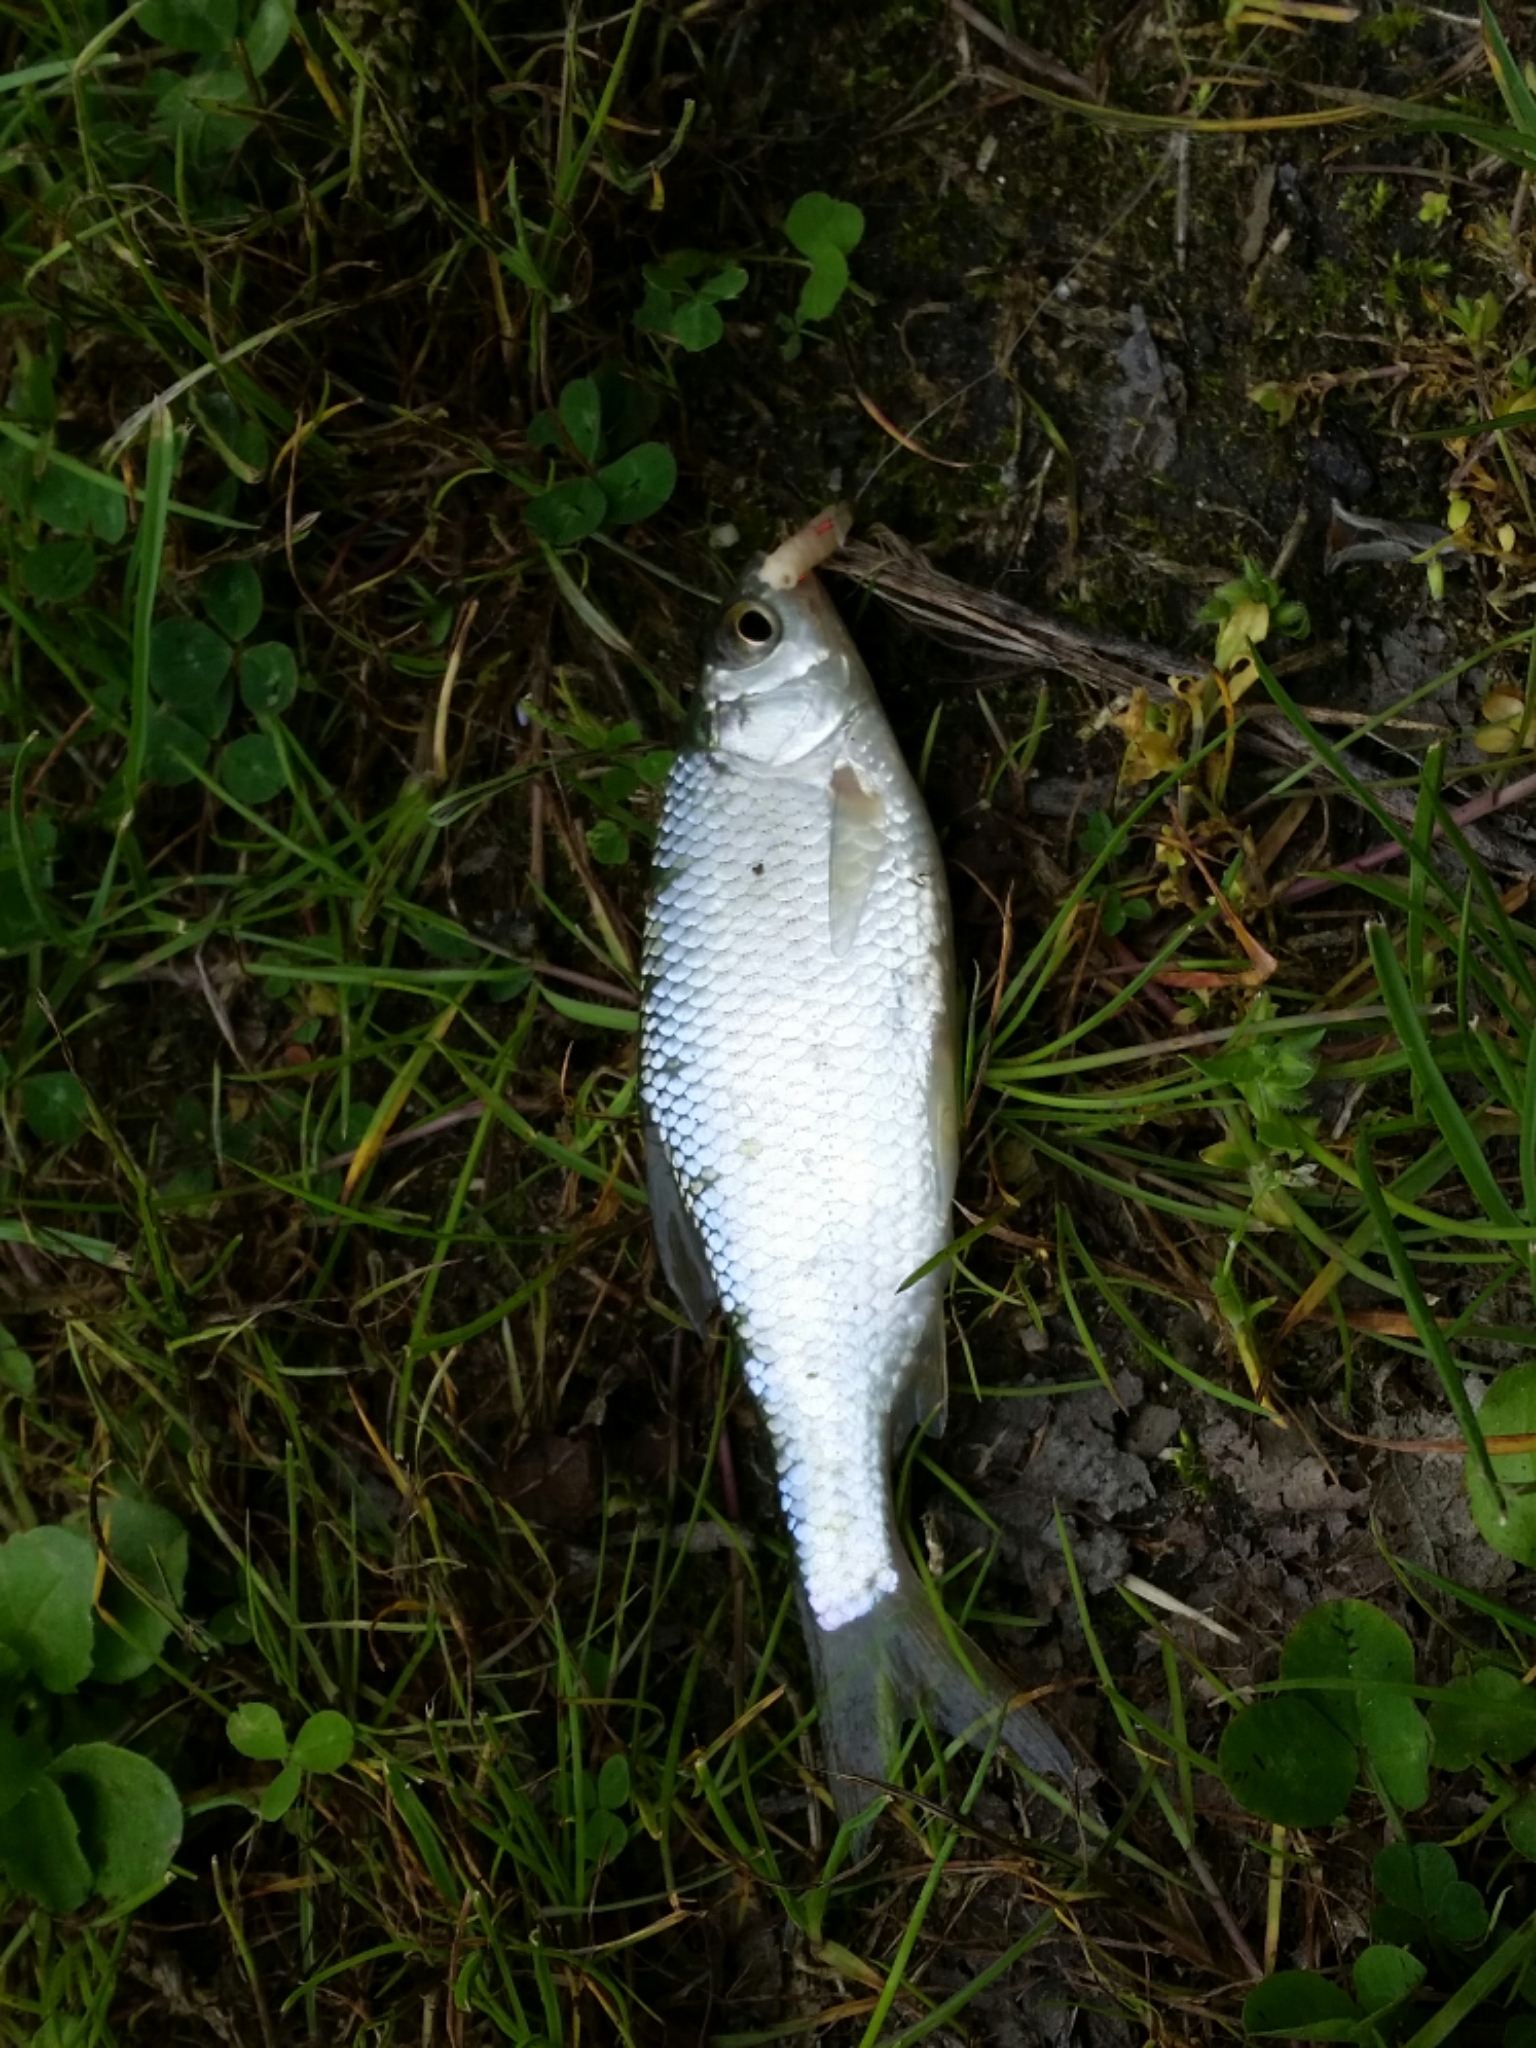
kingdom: Animalia
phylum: Chordata
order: Cypriniformes
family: Cyprinidae
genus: Scardinius
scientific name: Scardinius hesperidicus
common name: Italian rudd
